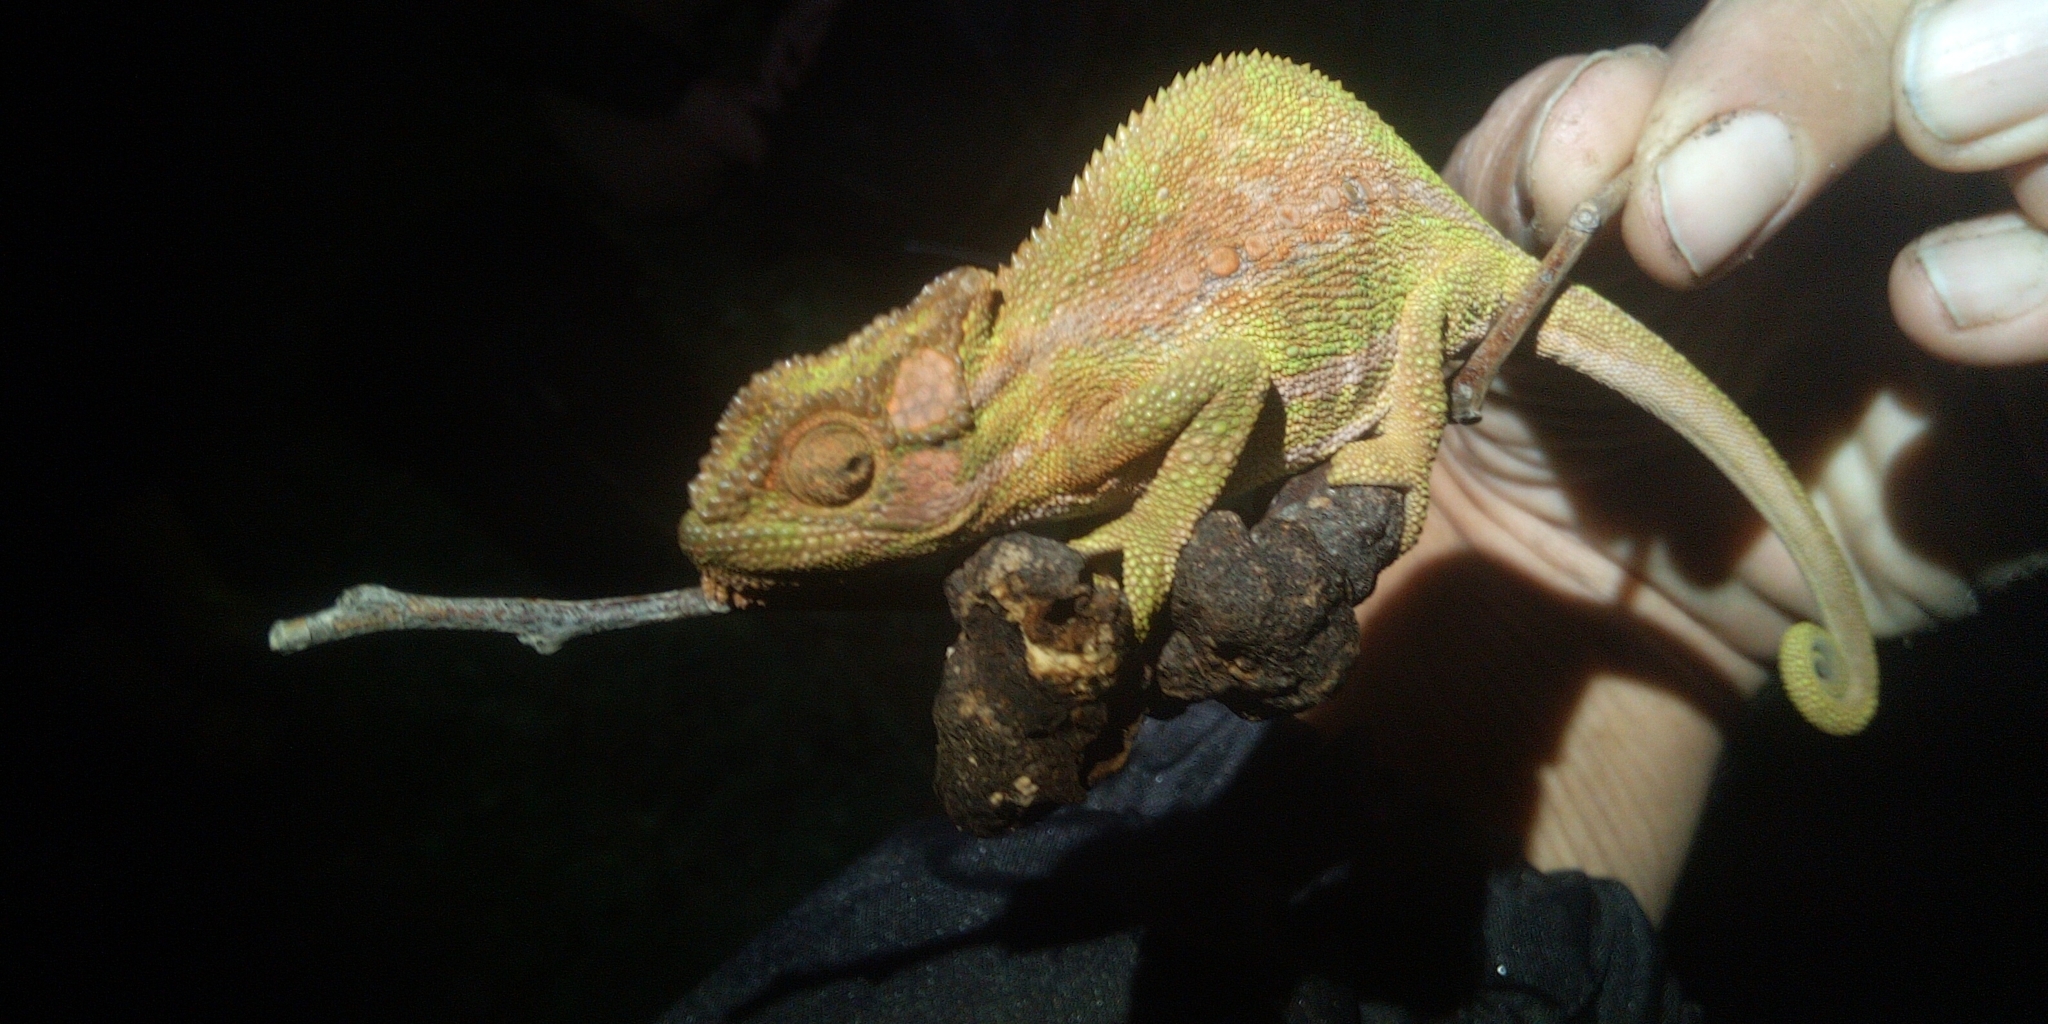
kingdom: Animalia
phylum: Chordata
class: Squamata
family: Chamaeleonidae
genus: Bradypodion
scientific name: Bradypodion pumilum
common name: Cape dwarf chameleon
